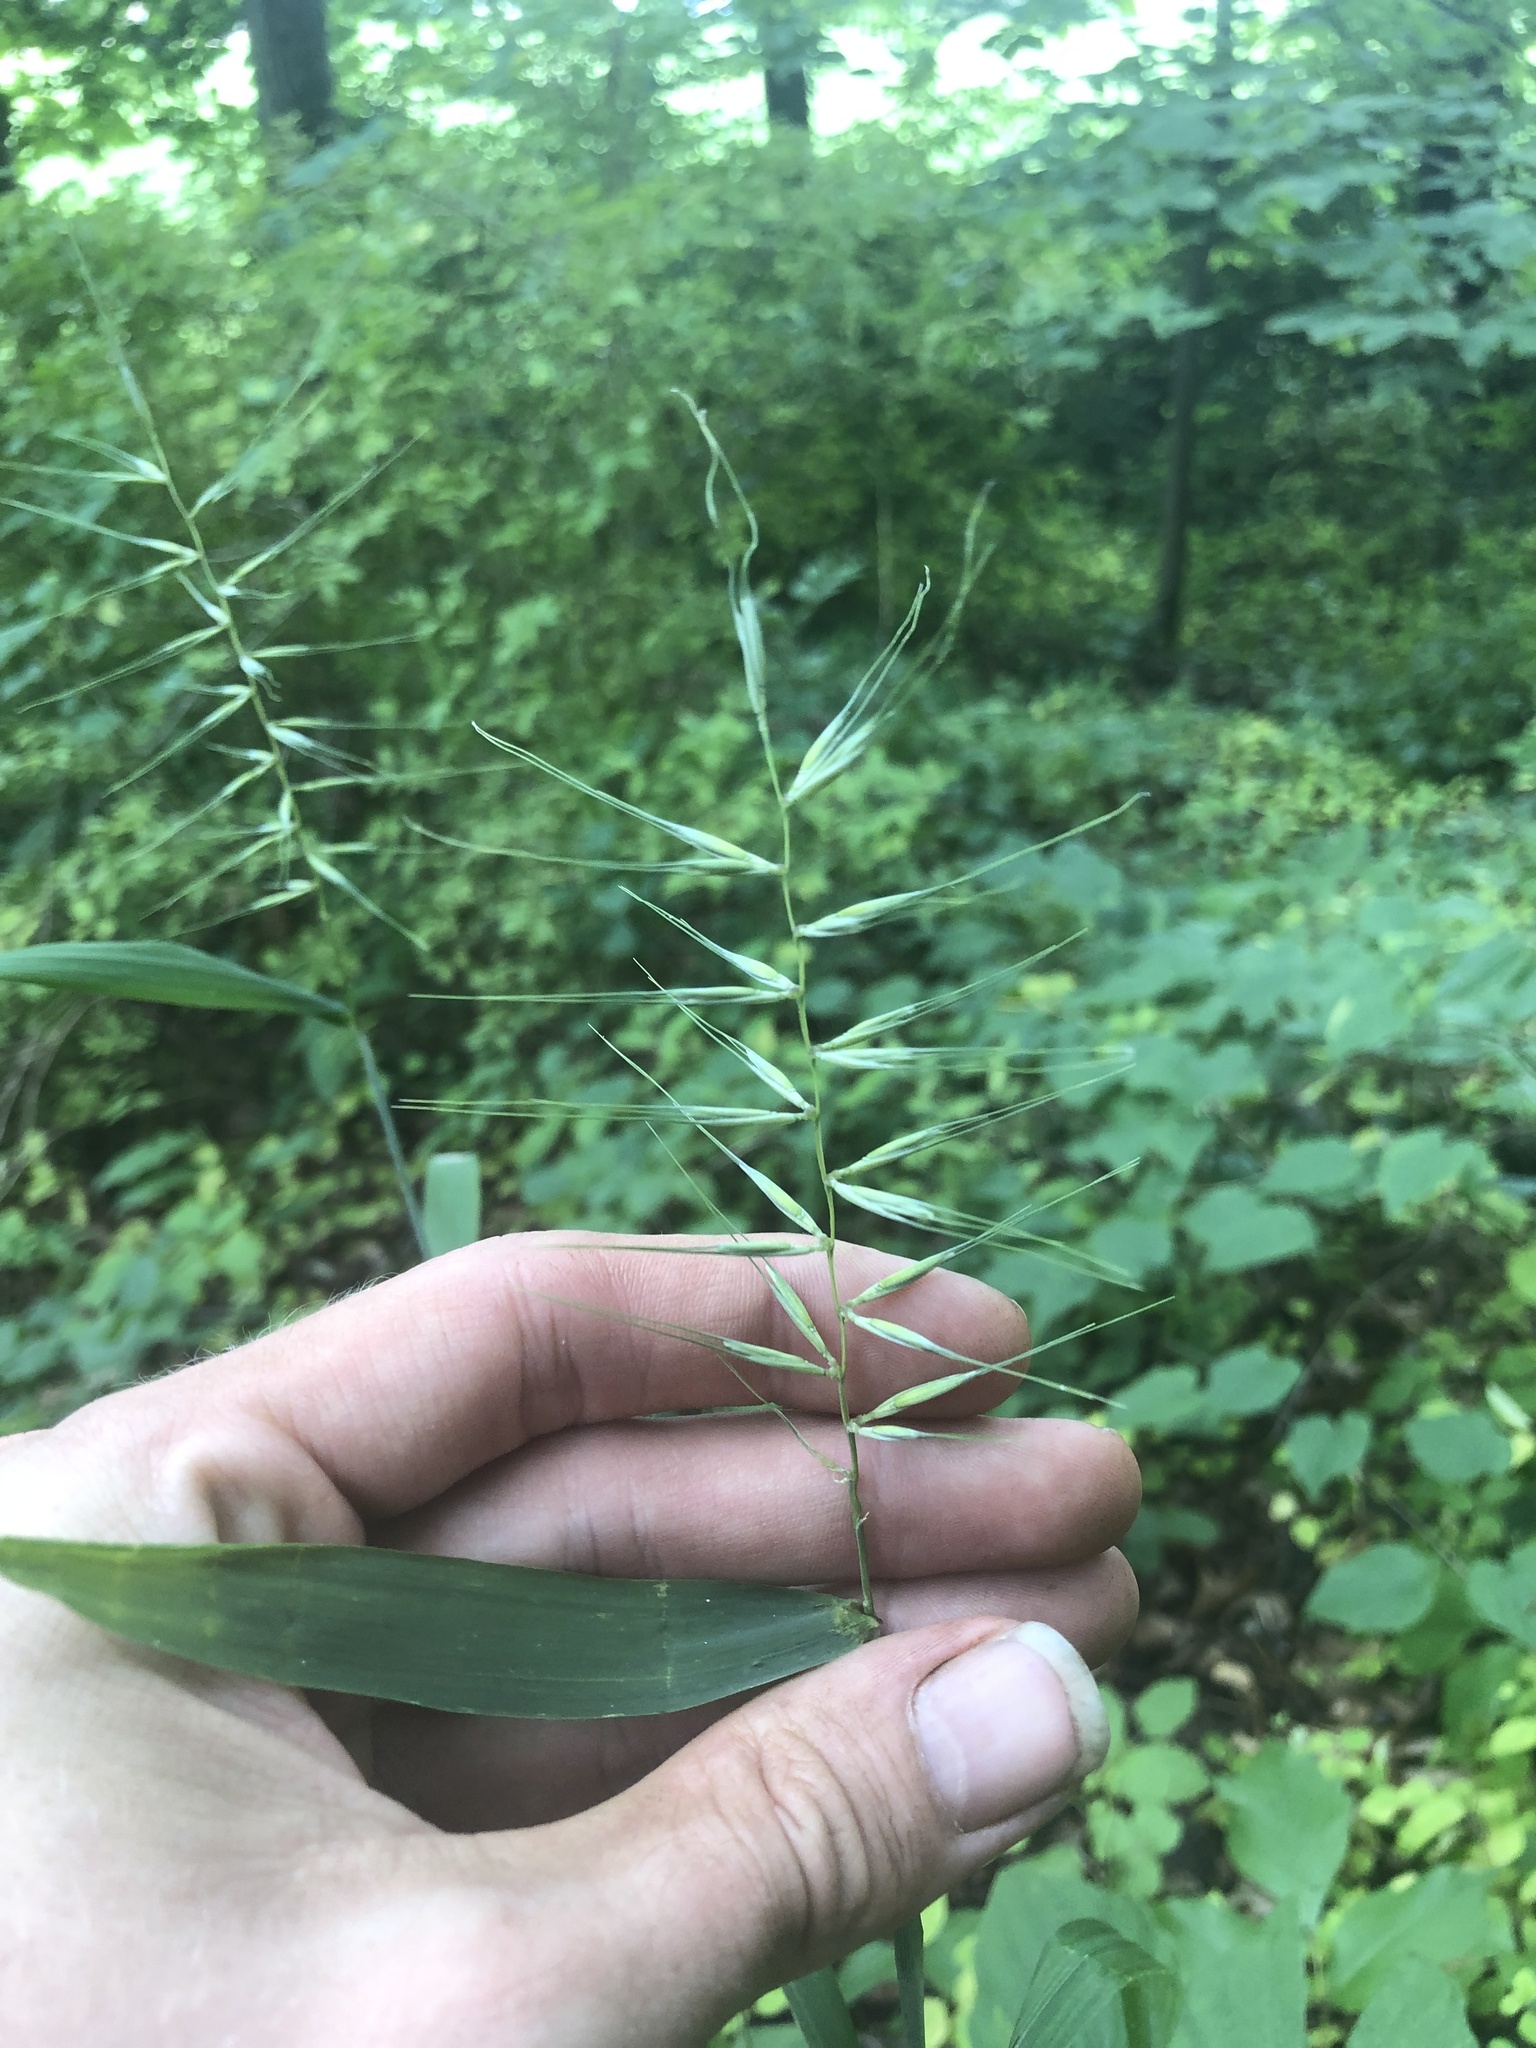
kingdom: Plantae
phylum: Tracheophyta
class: Liliopsida
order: Poales
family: Poaceae
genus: Elymus
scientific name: Elymus hystrix
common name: Bottlebrush grass
